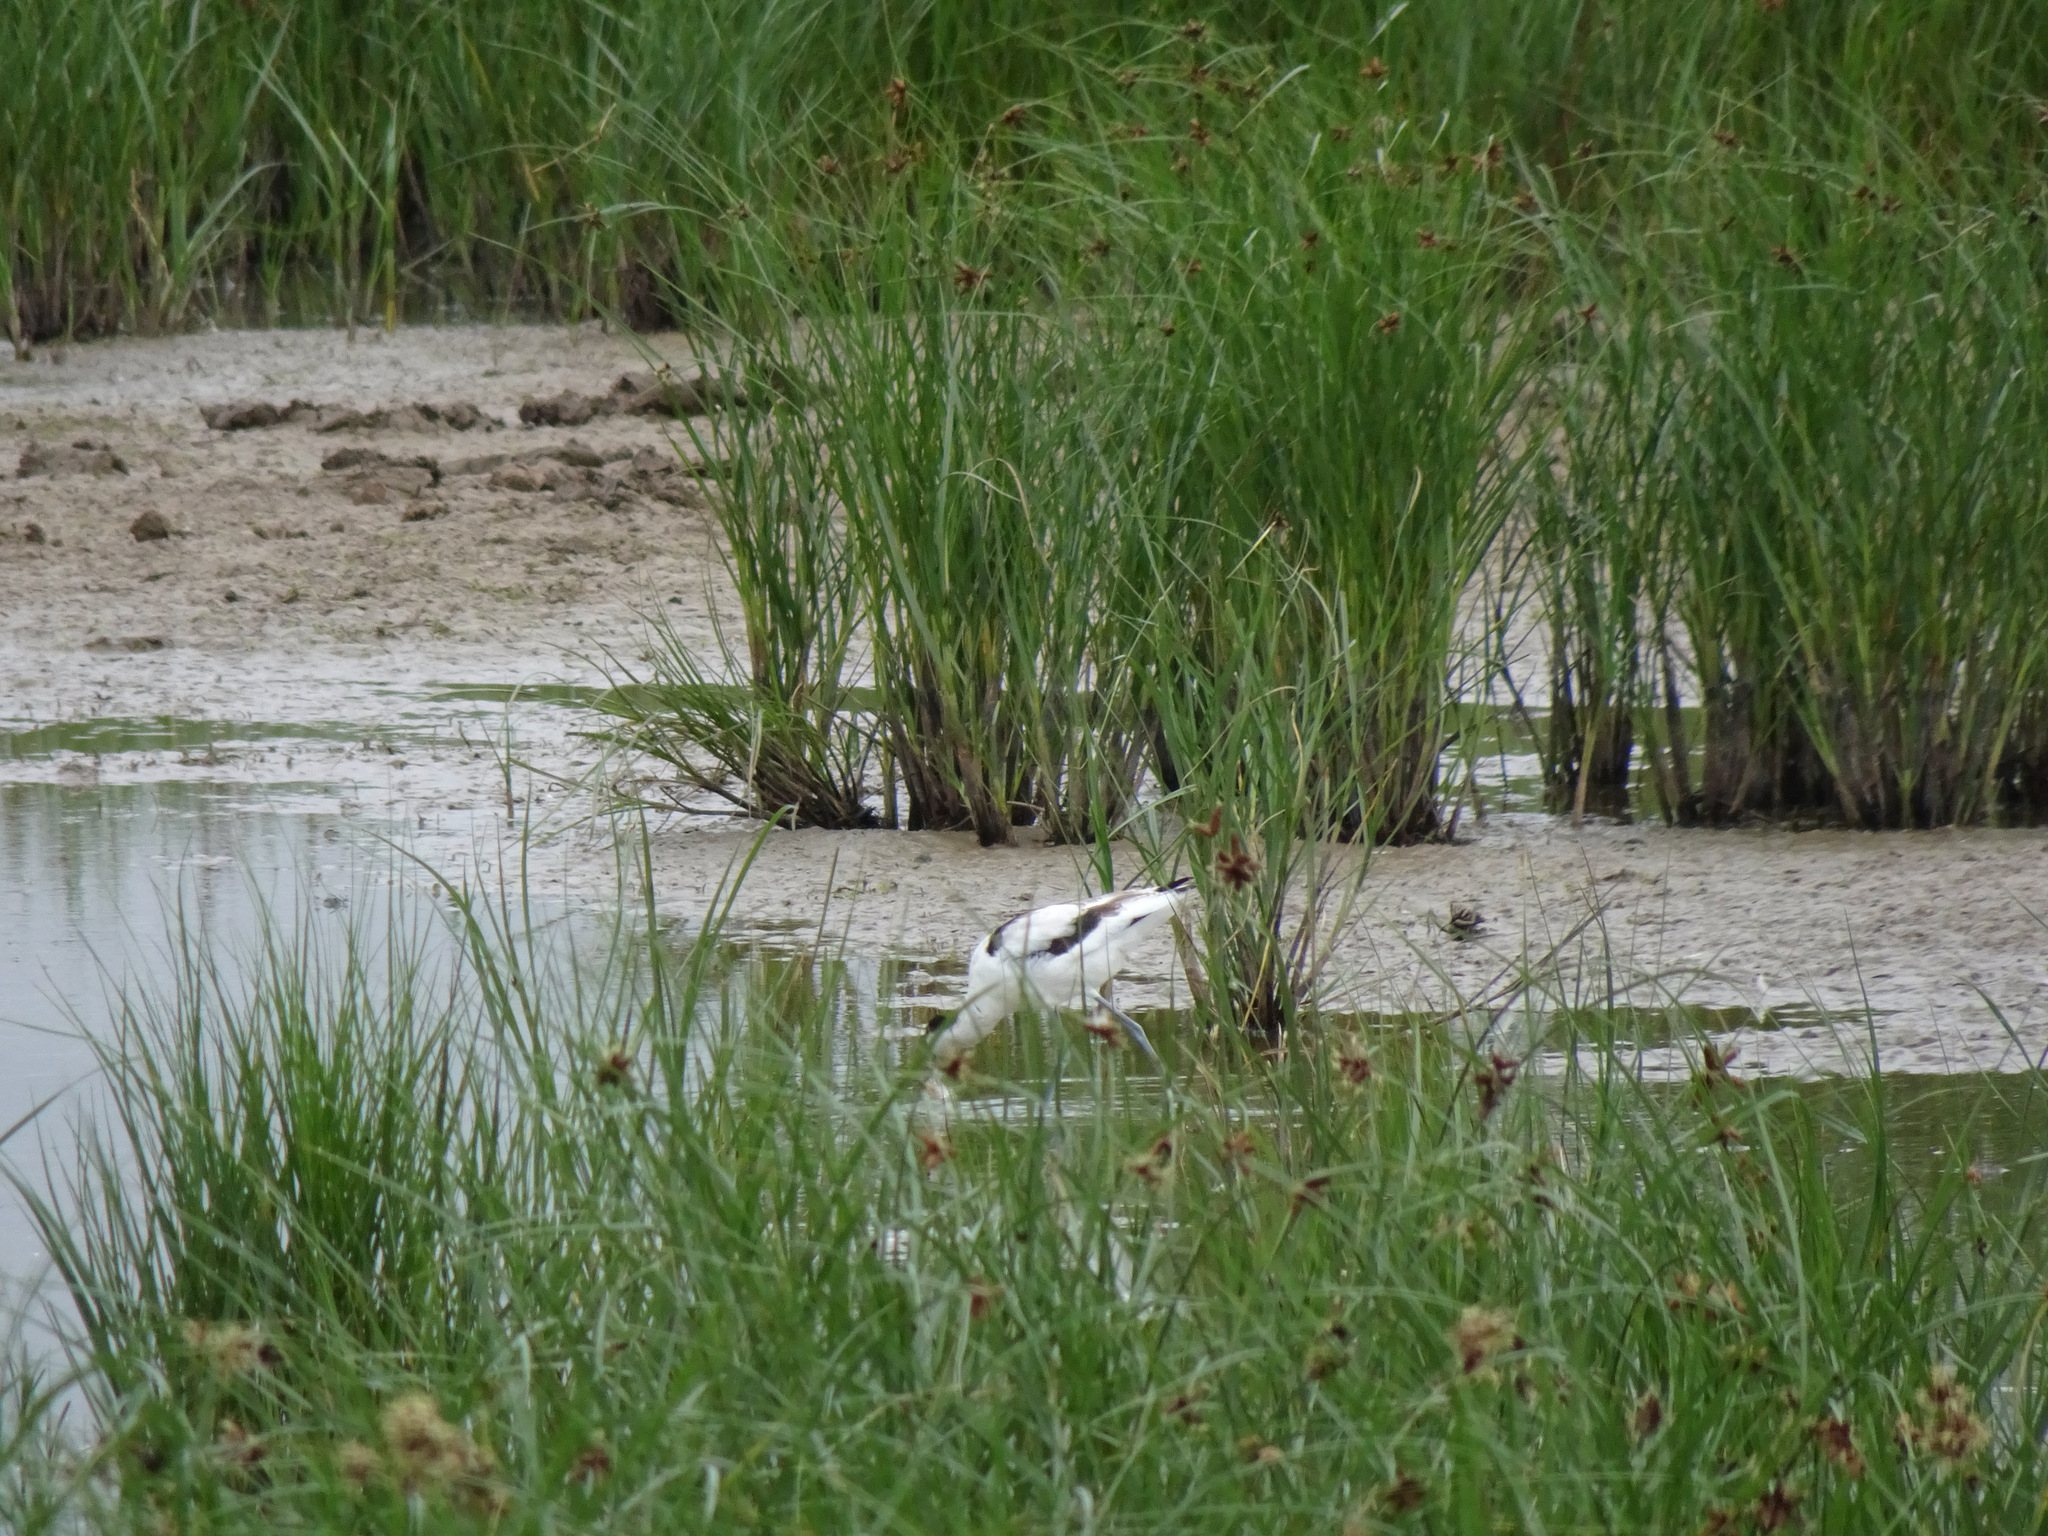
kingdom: Animalia
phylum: Chordata
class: Aves
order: Charadriiformes
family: Recurvirostridae
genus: Recurvirostra
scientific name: Recurvirostra avosetta
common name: Pied avocet
